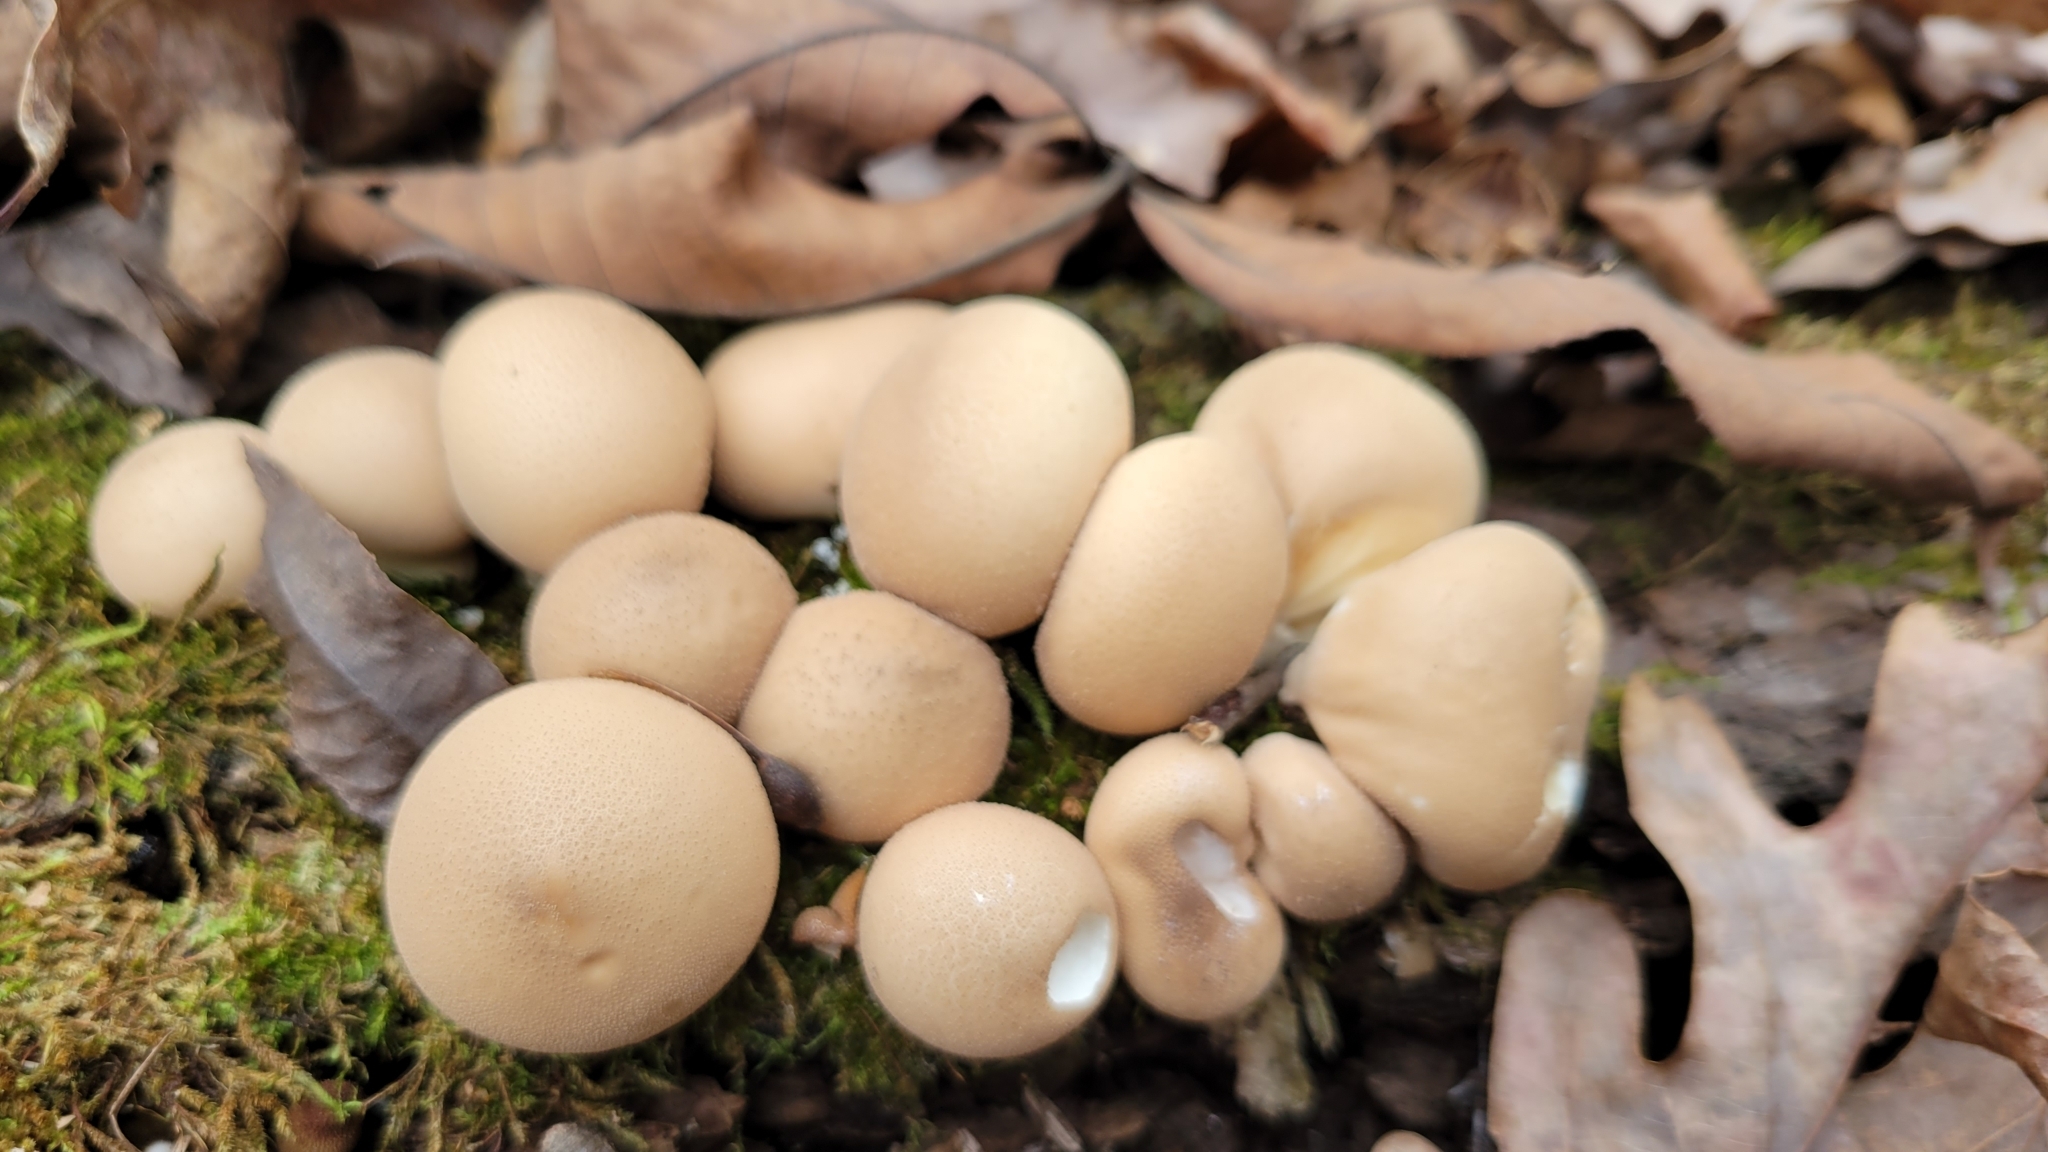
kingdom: Fungi
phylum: Basidiomycota
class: Agaricomycetes
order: Agaricales
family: Lycoperdaceae
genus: Apioperdon
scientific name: Apioperdon pyriforme
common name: Pear-shaped puffball
